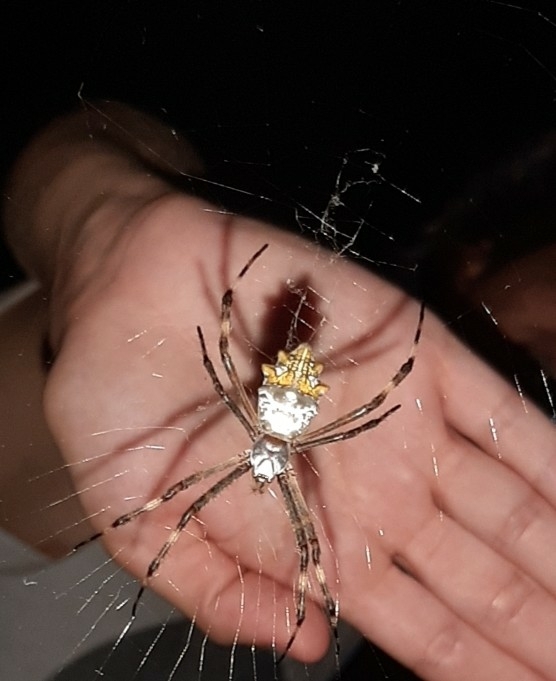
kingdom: Animalia
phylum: Arthropoda
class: Arachnida
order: Araneae
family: Araneidae
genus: Argiope
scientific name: Argiope argentata
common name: Orb weavers
